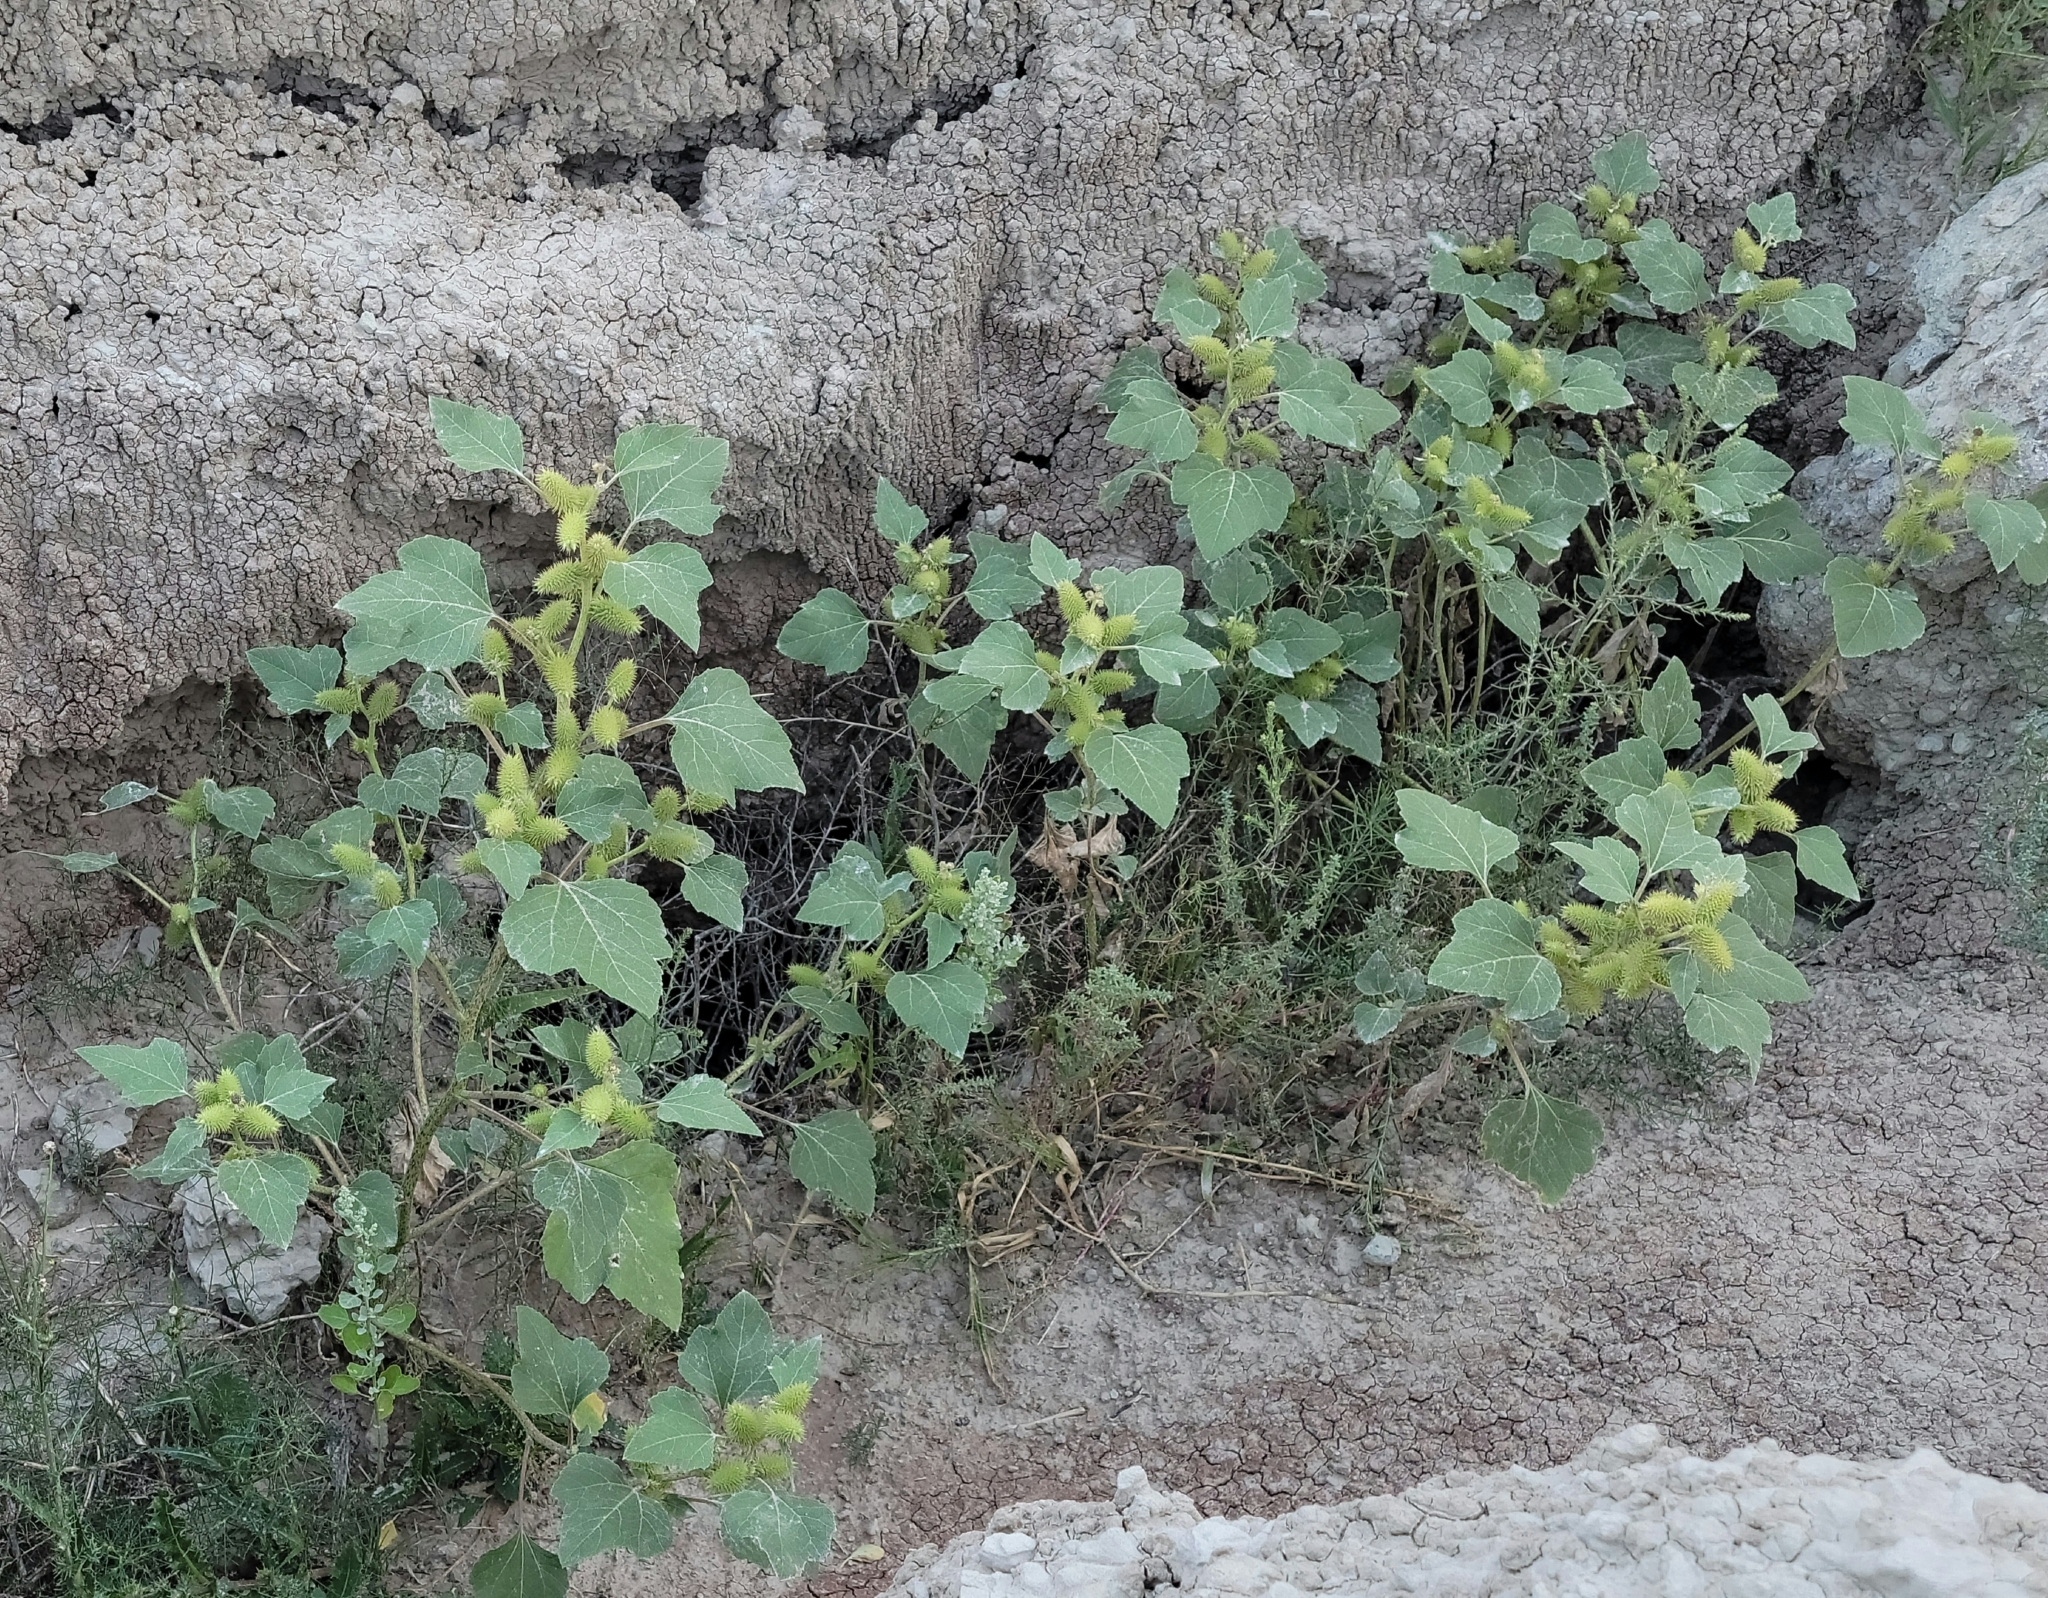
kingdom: Plantae
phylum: Tracheophyta
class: Magnoliopsida
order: Asterales
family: Asteraceae
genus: Xanthium
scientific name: Xanthium strumarium
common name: Rough cocklebur
